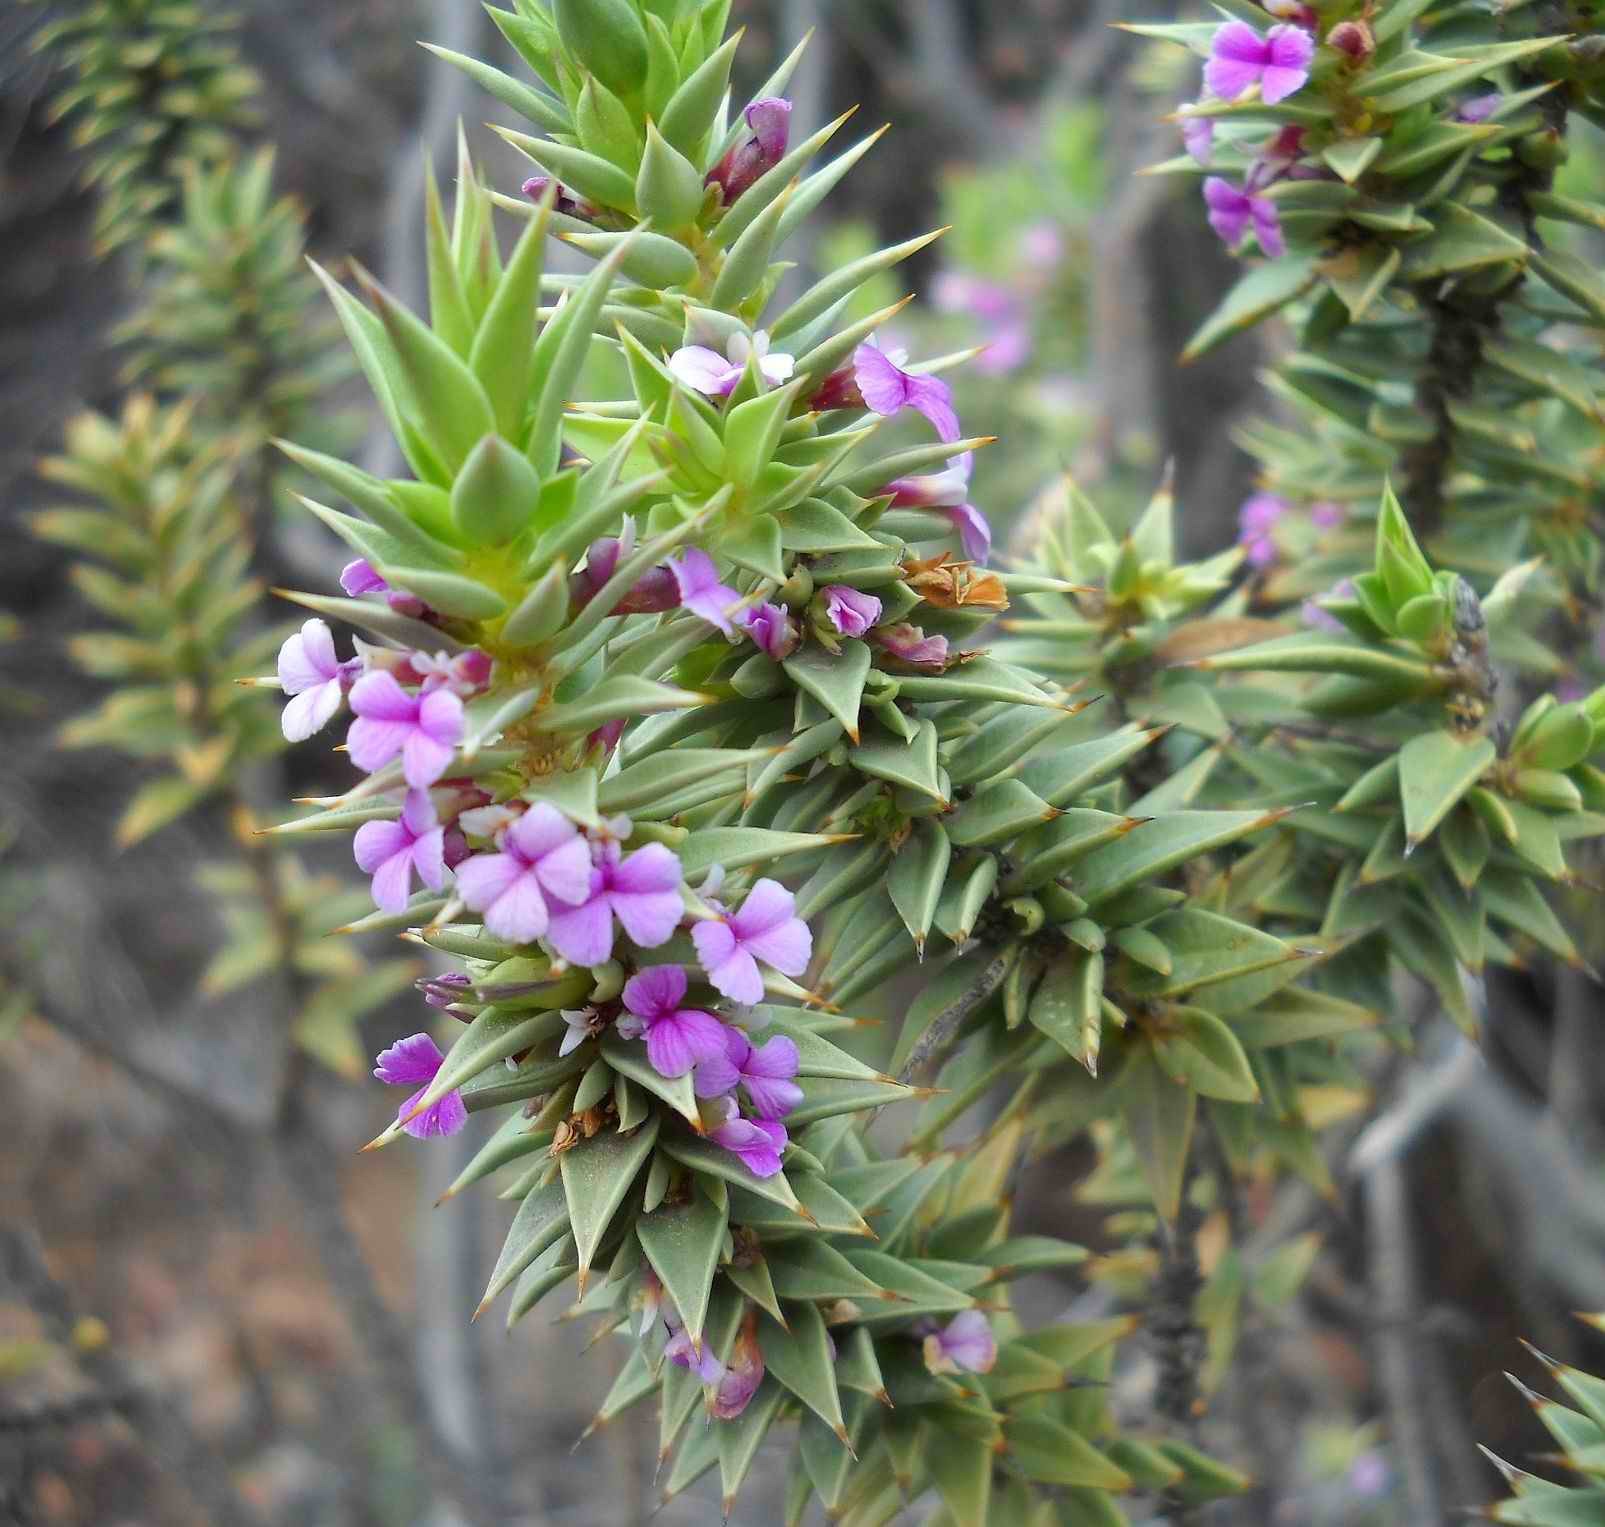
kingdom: Plantae
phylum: Tracheophyta
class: Magnoliopsida
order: Fabales
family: Polygalaceae
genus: Muraltia
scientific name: Muraltia cliffortiifolia
